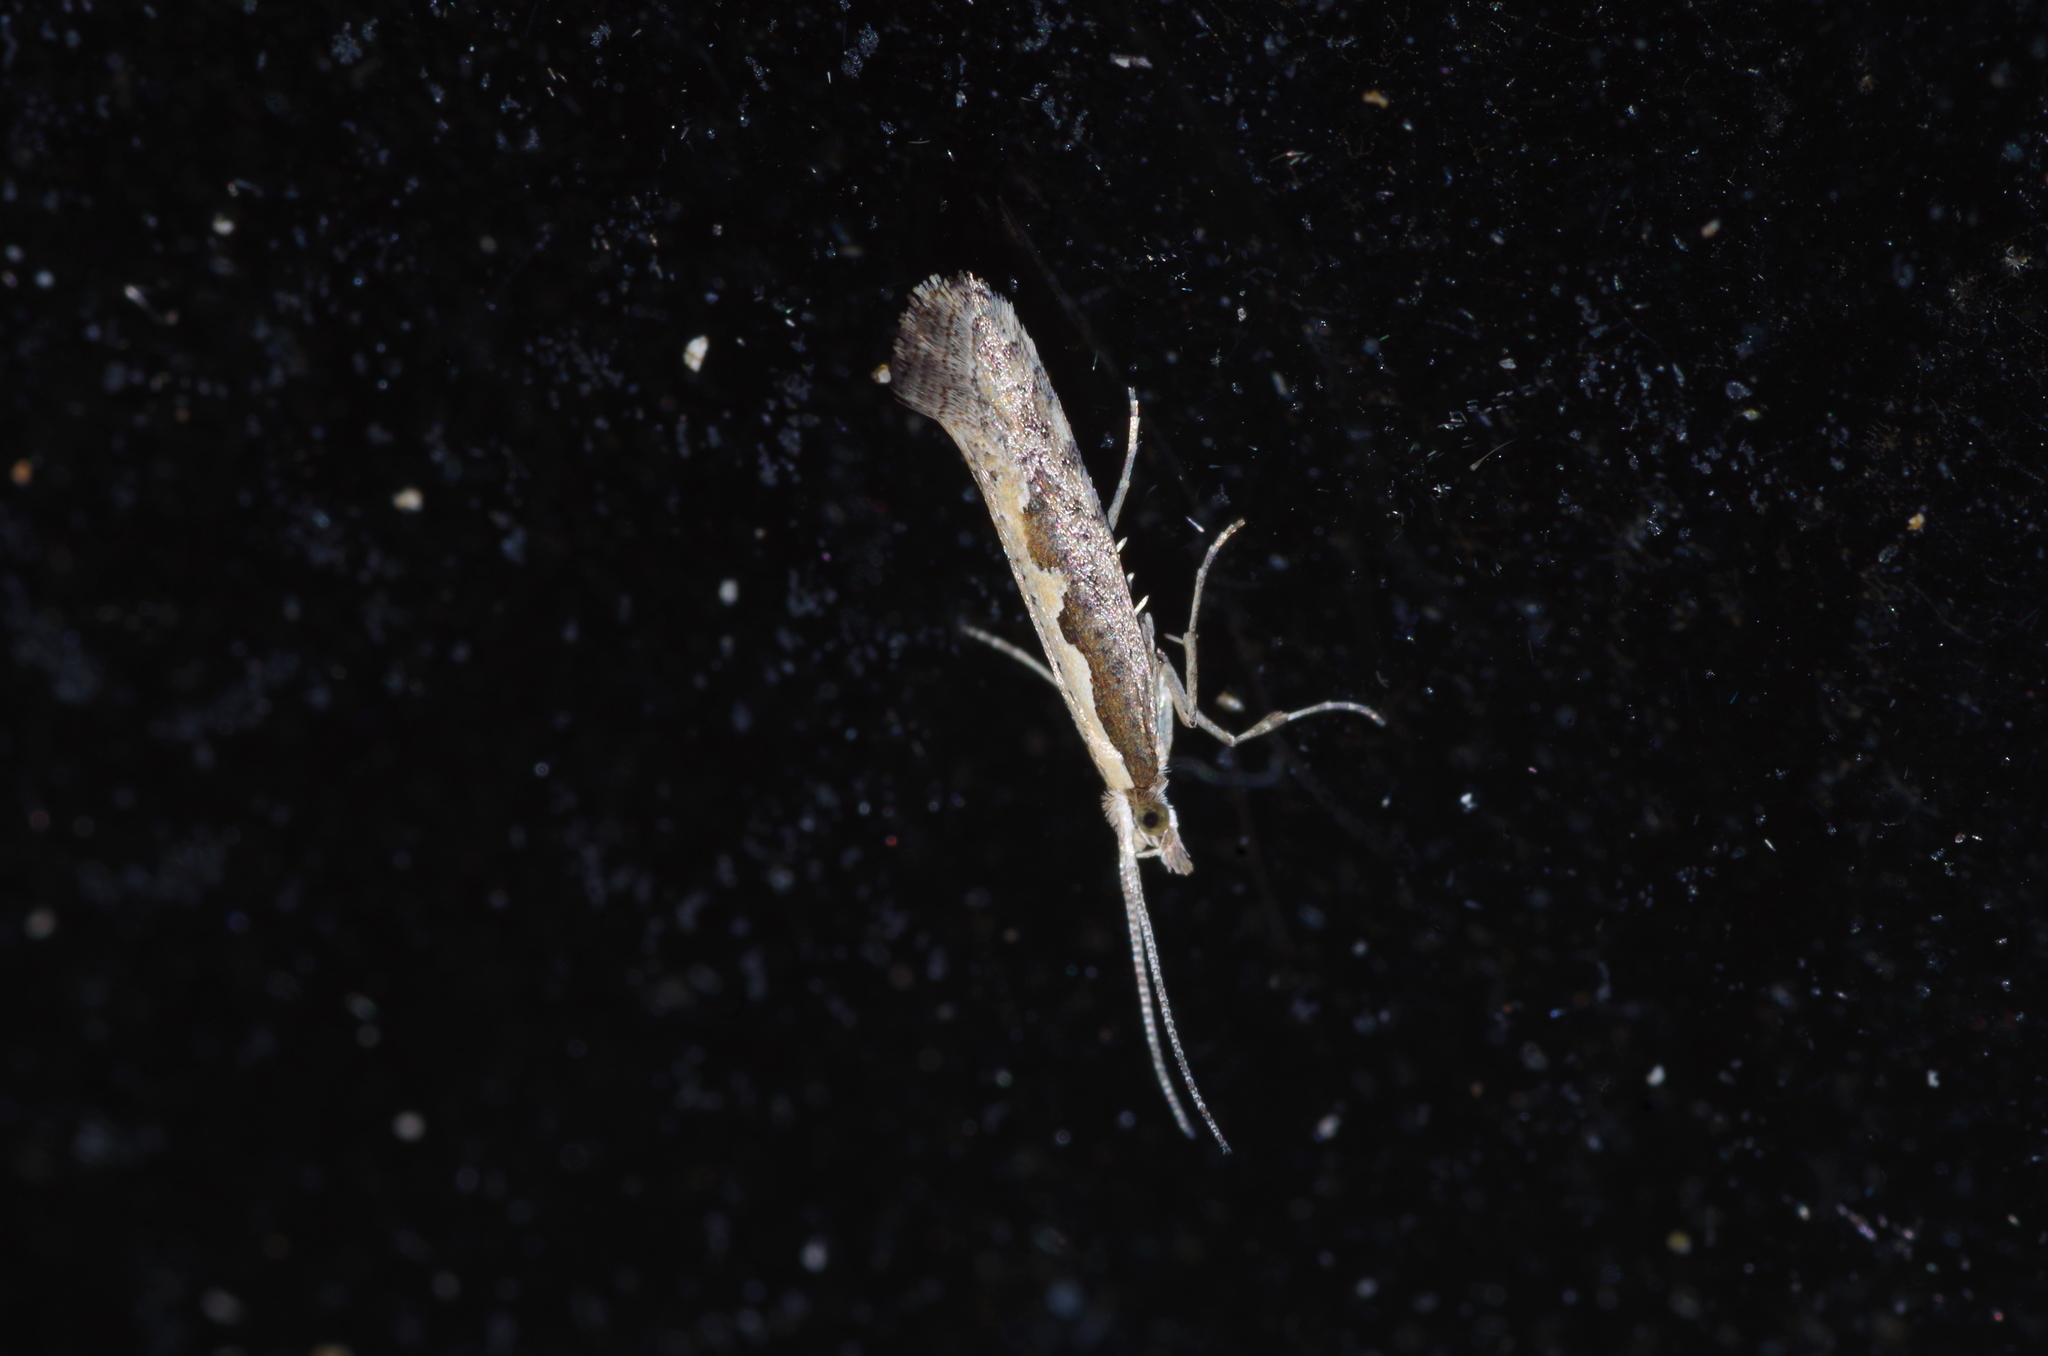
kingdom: Animalia
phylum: Arthropoda
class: Insecta
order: Lepidoptera
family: Plutellidae
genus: Plutella
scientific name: Plutella xylostella
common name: Diamond-back moth
